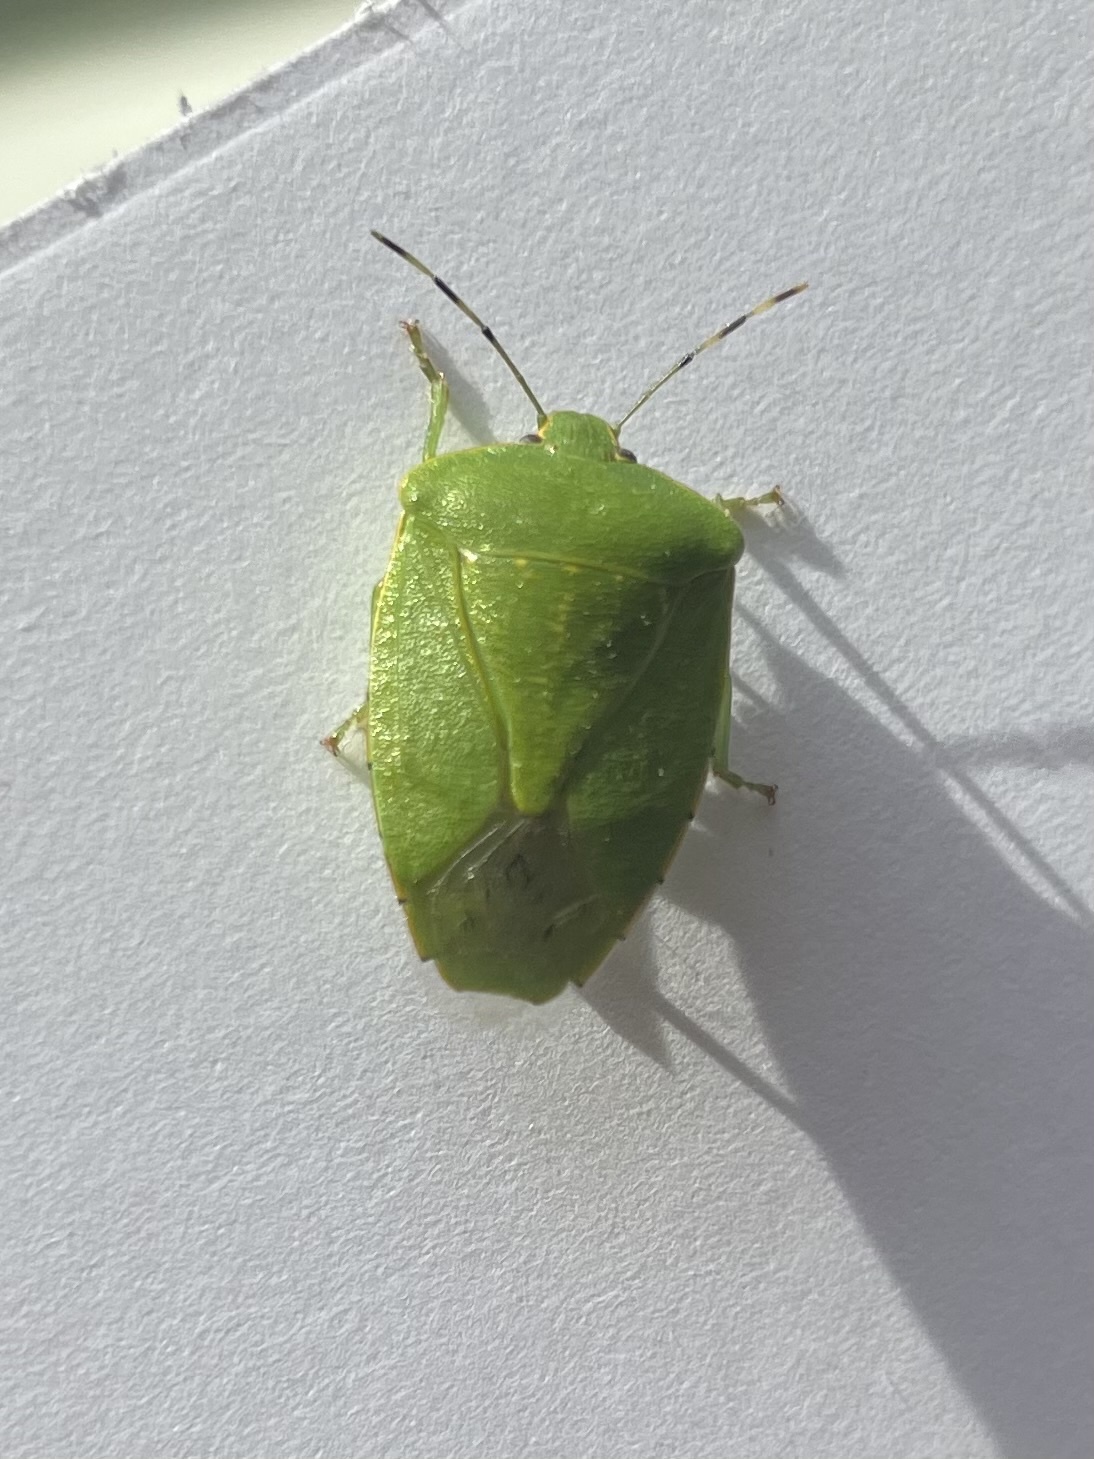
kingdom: Animalia
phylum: Arthropoda
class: Insecta
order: Hemiptera
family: Pentatomidae
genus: Chinavia
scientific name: Chinavia hilaris
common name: Green stink bug
